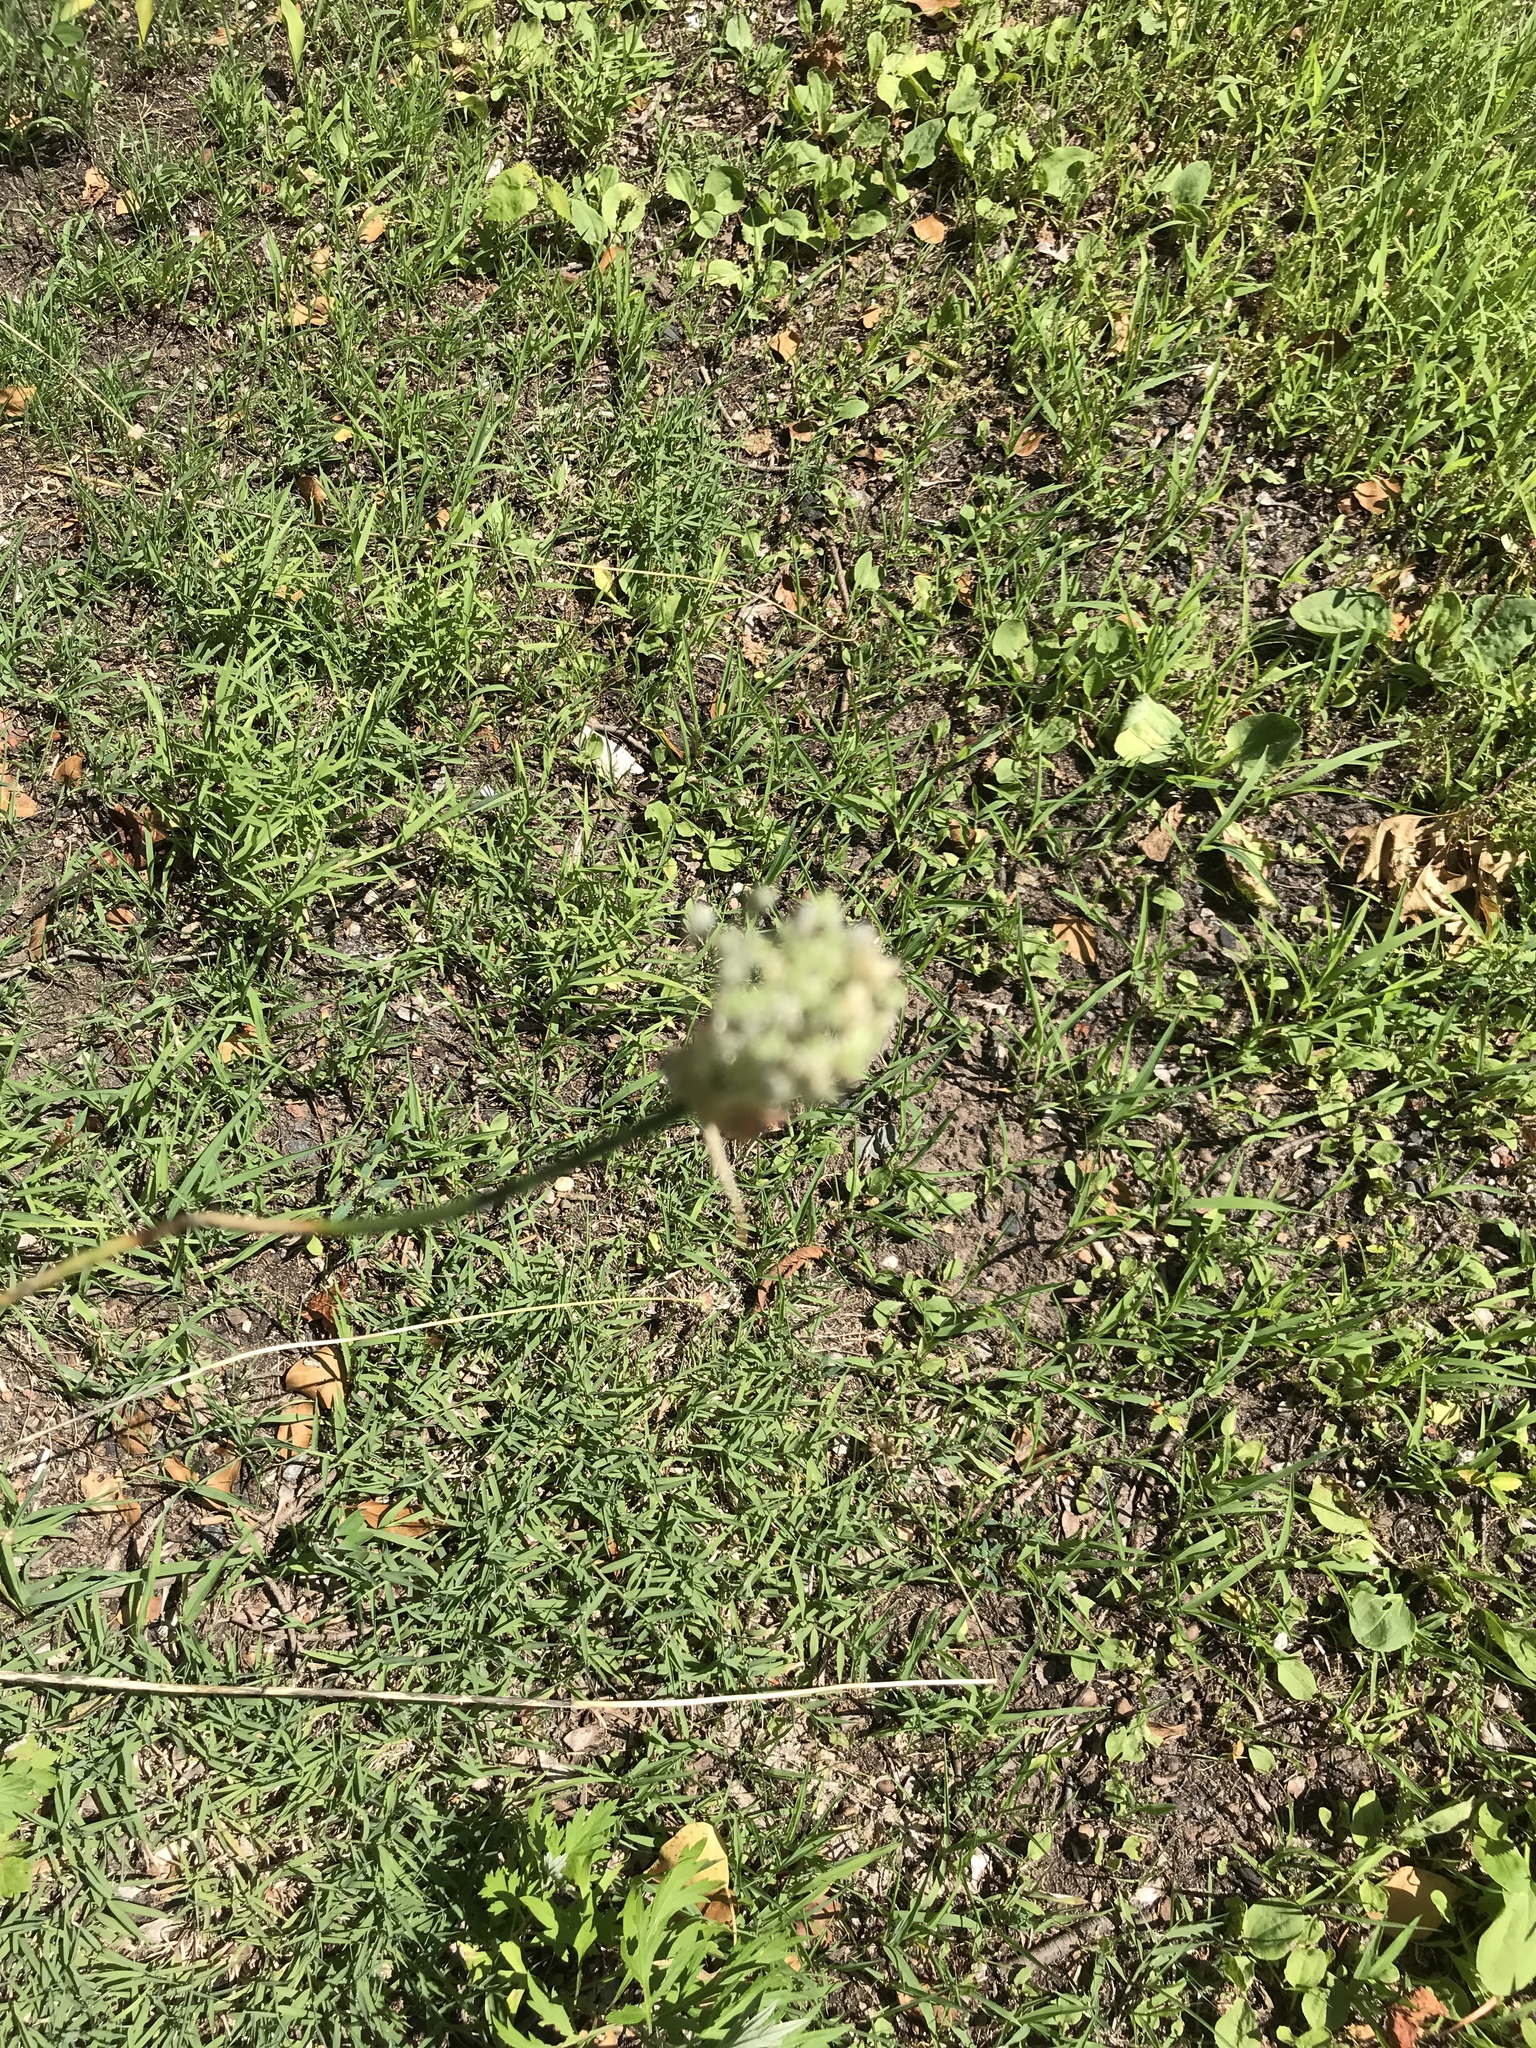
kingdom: Plantae
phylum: Tracheophyta
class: Liliopsida
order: Asparagales
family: Amaryllidaceae
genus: Allium
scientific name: Allium vineale
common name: Crow garlic
